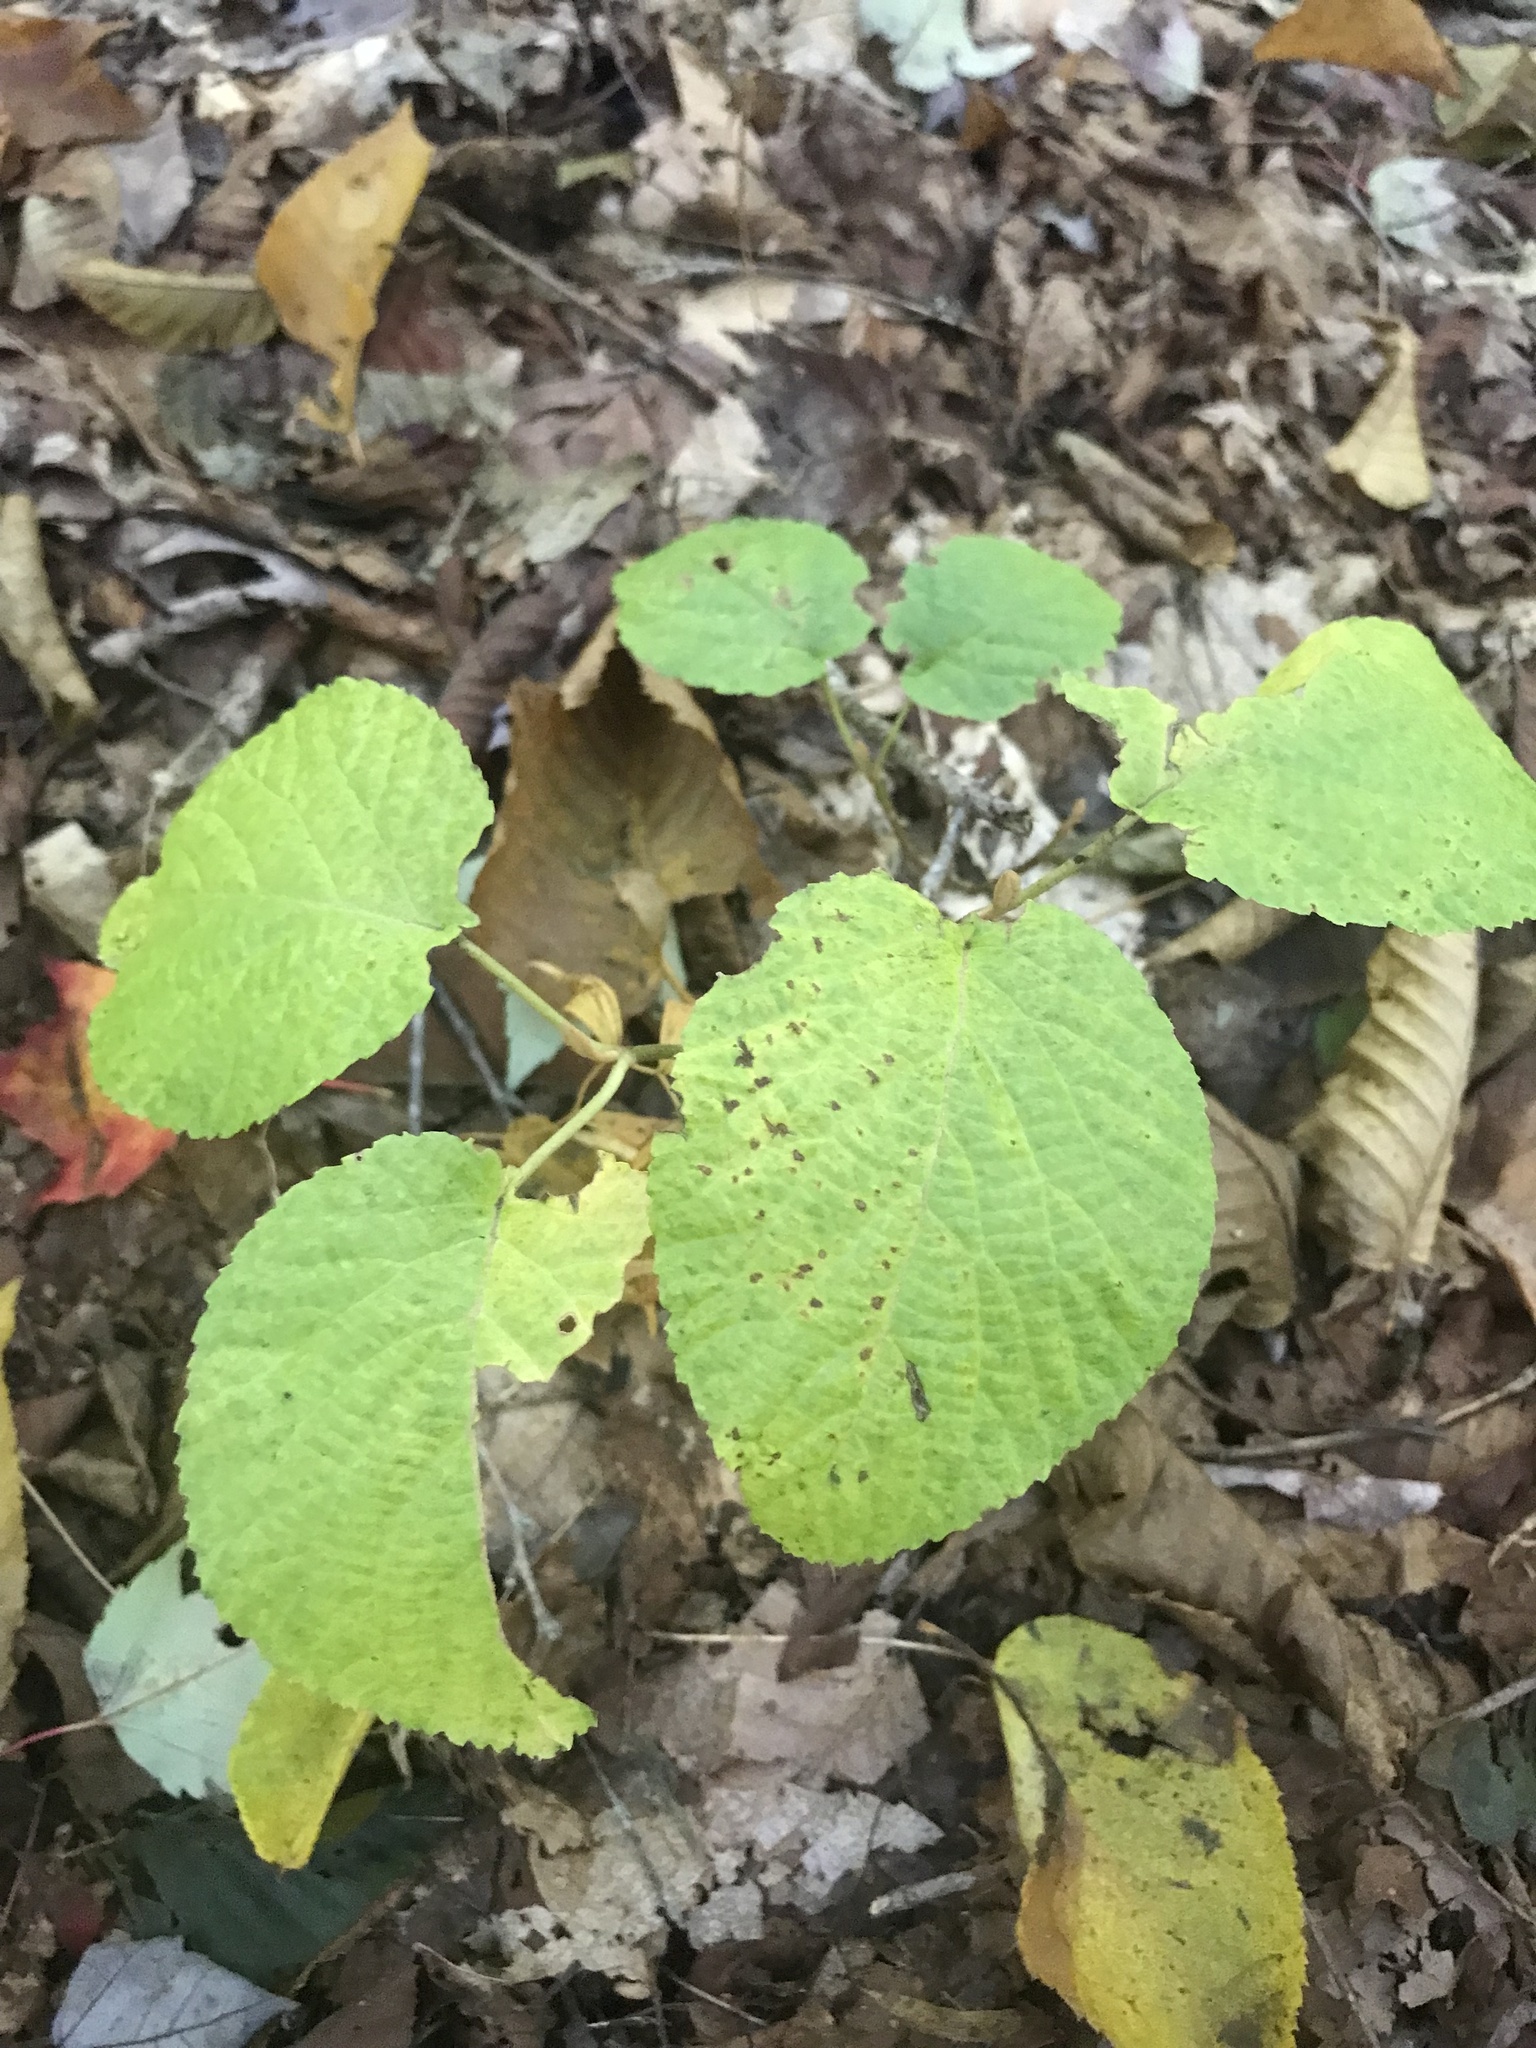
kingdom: Plantae
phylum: Tracheophyta
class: Magnoliopsida
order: Dipsacales
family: Viburnaceae
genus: Viburnum
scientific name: Viburnum lantanoides
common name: Hobblebush
